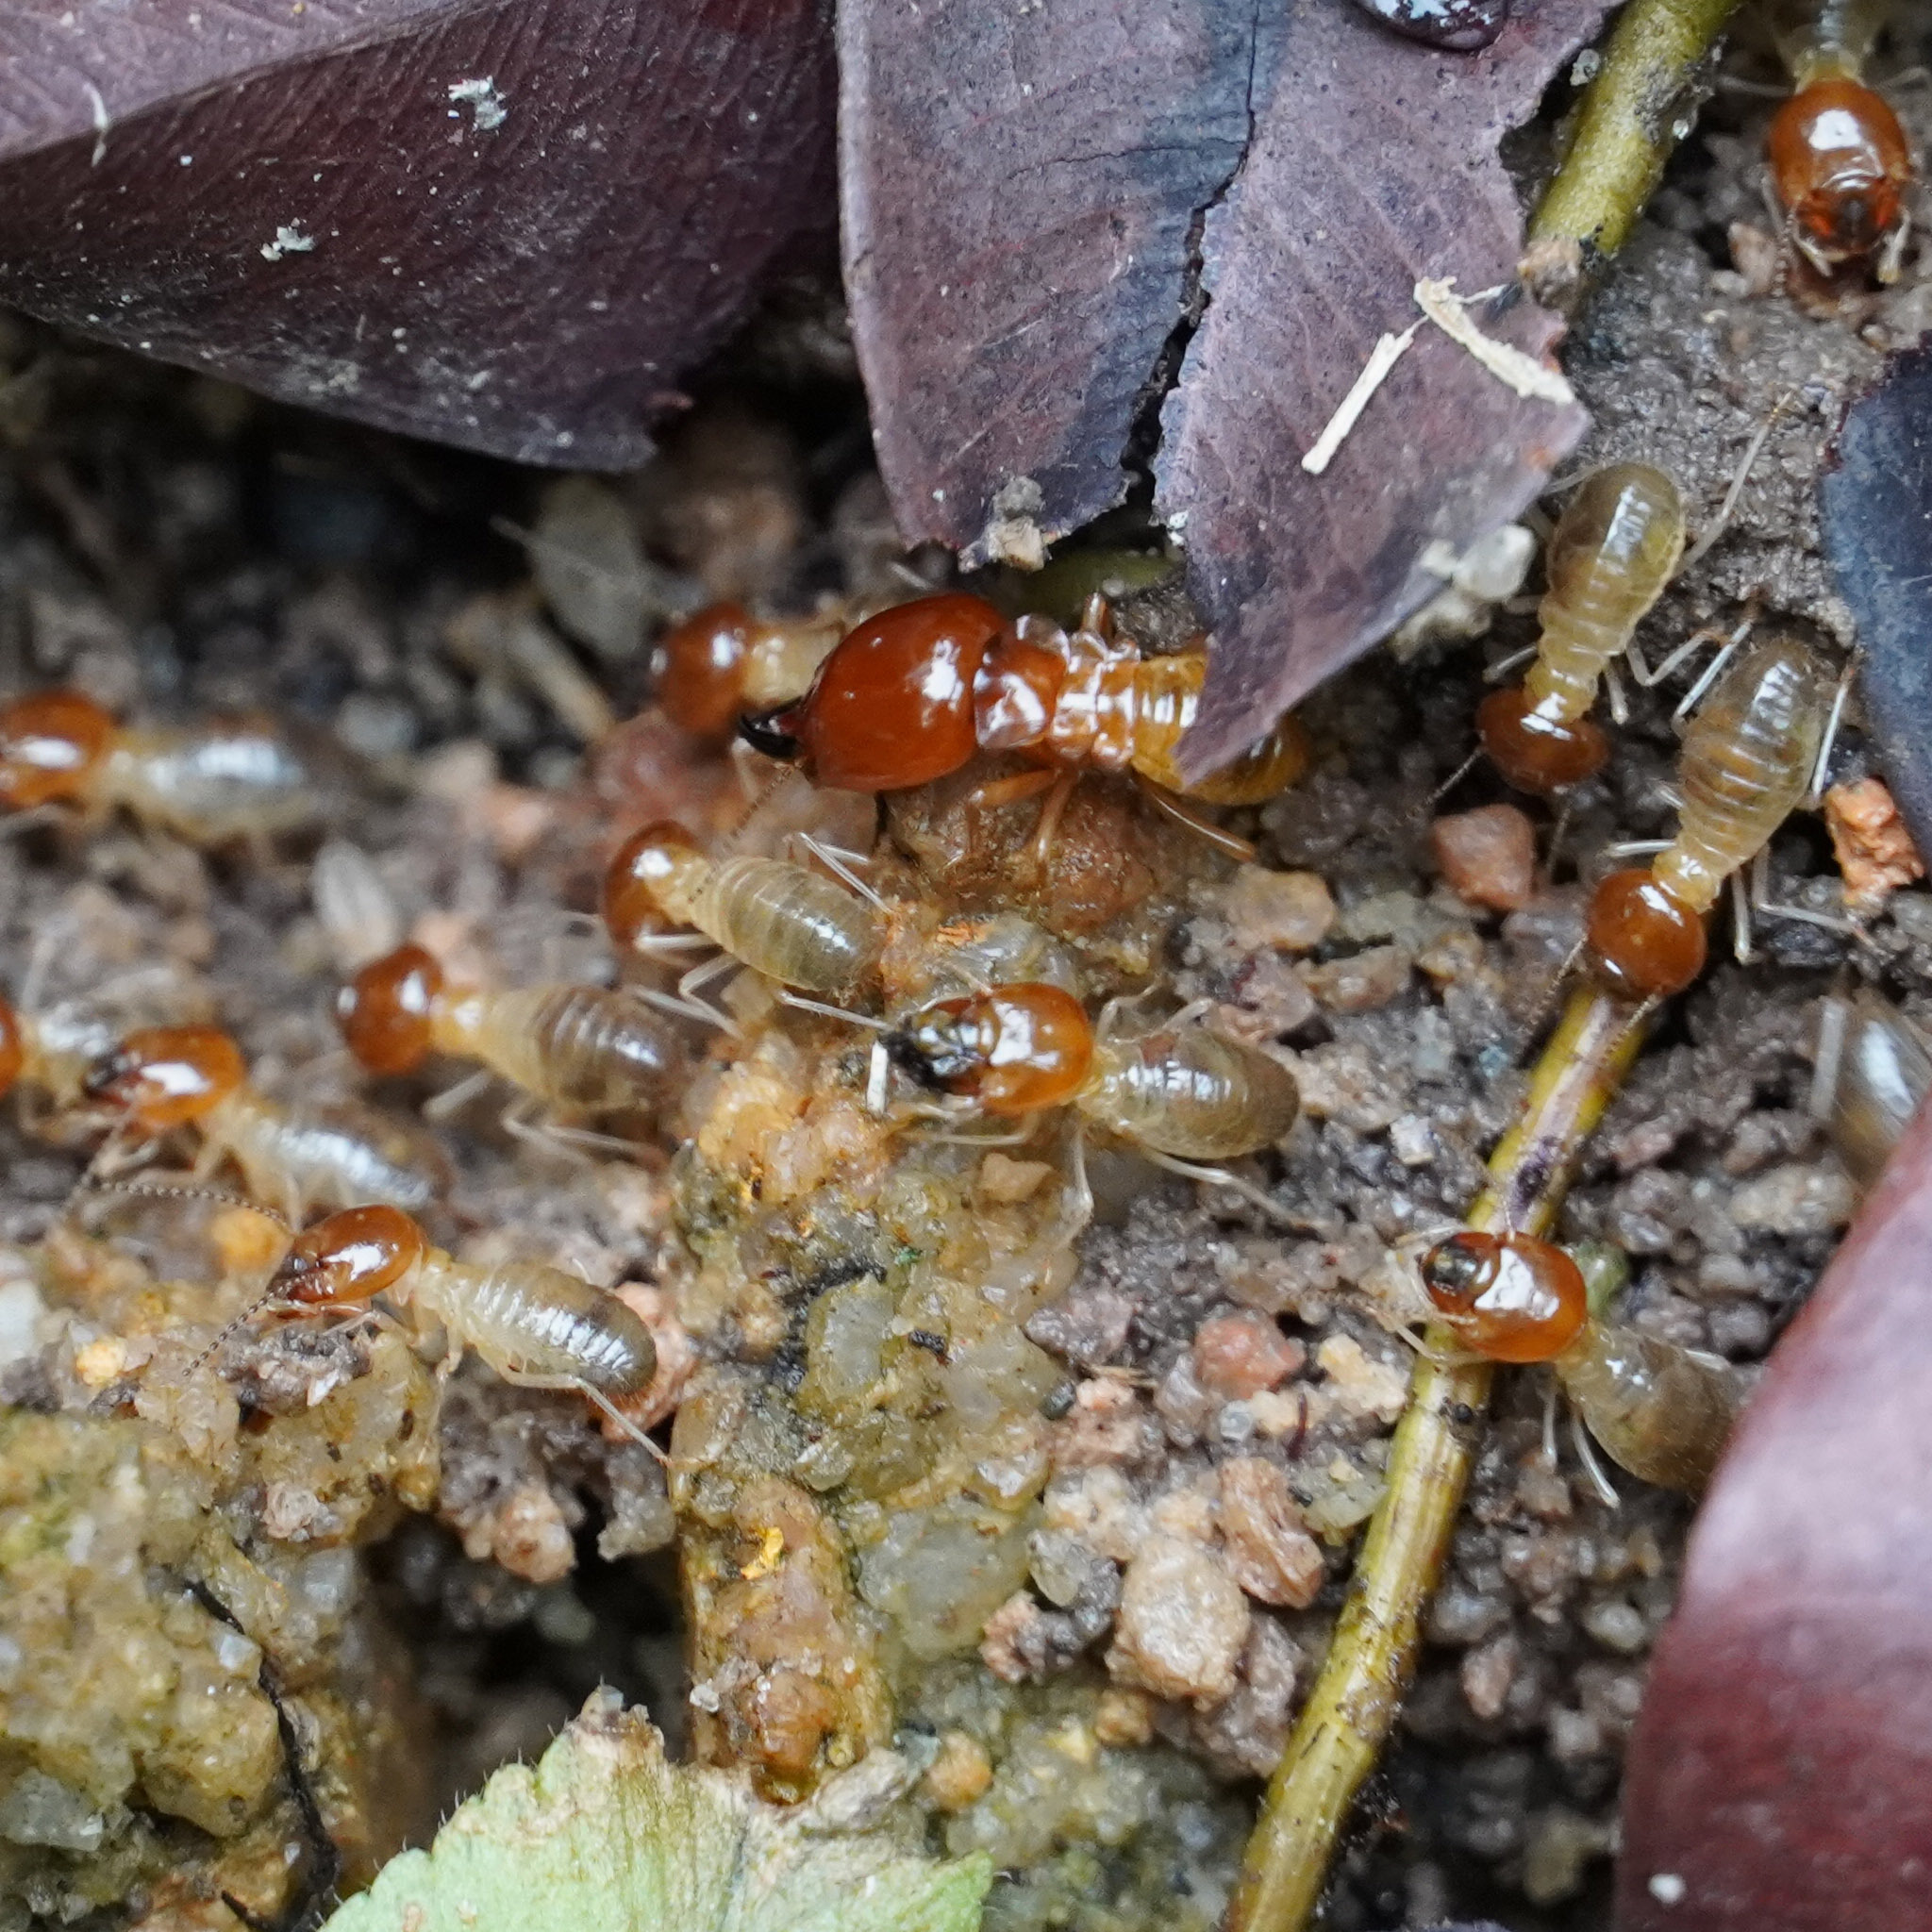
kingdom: Animalia
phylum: Arthropoda
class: Insecta
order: Blattodea
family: Termitidae
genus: Macrotermes
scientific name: Macrotermes gilvus
